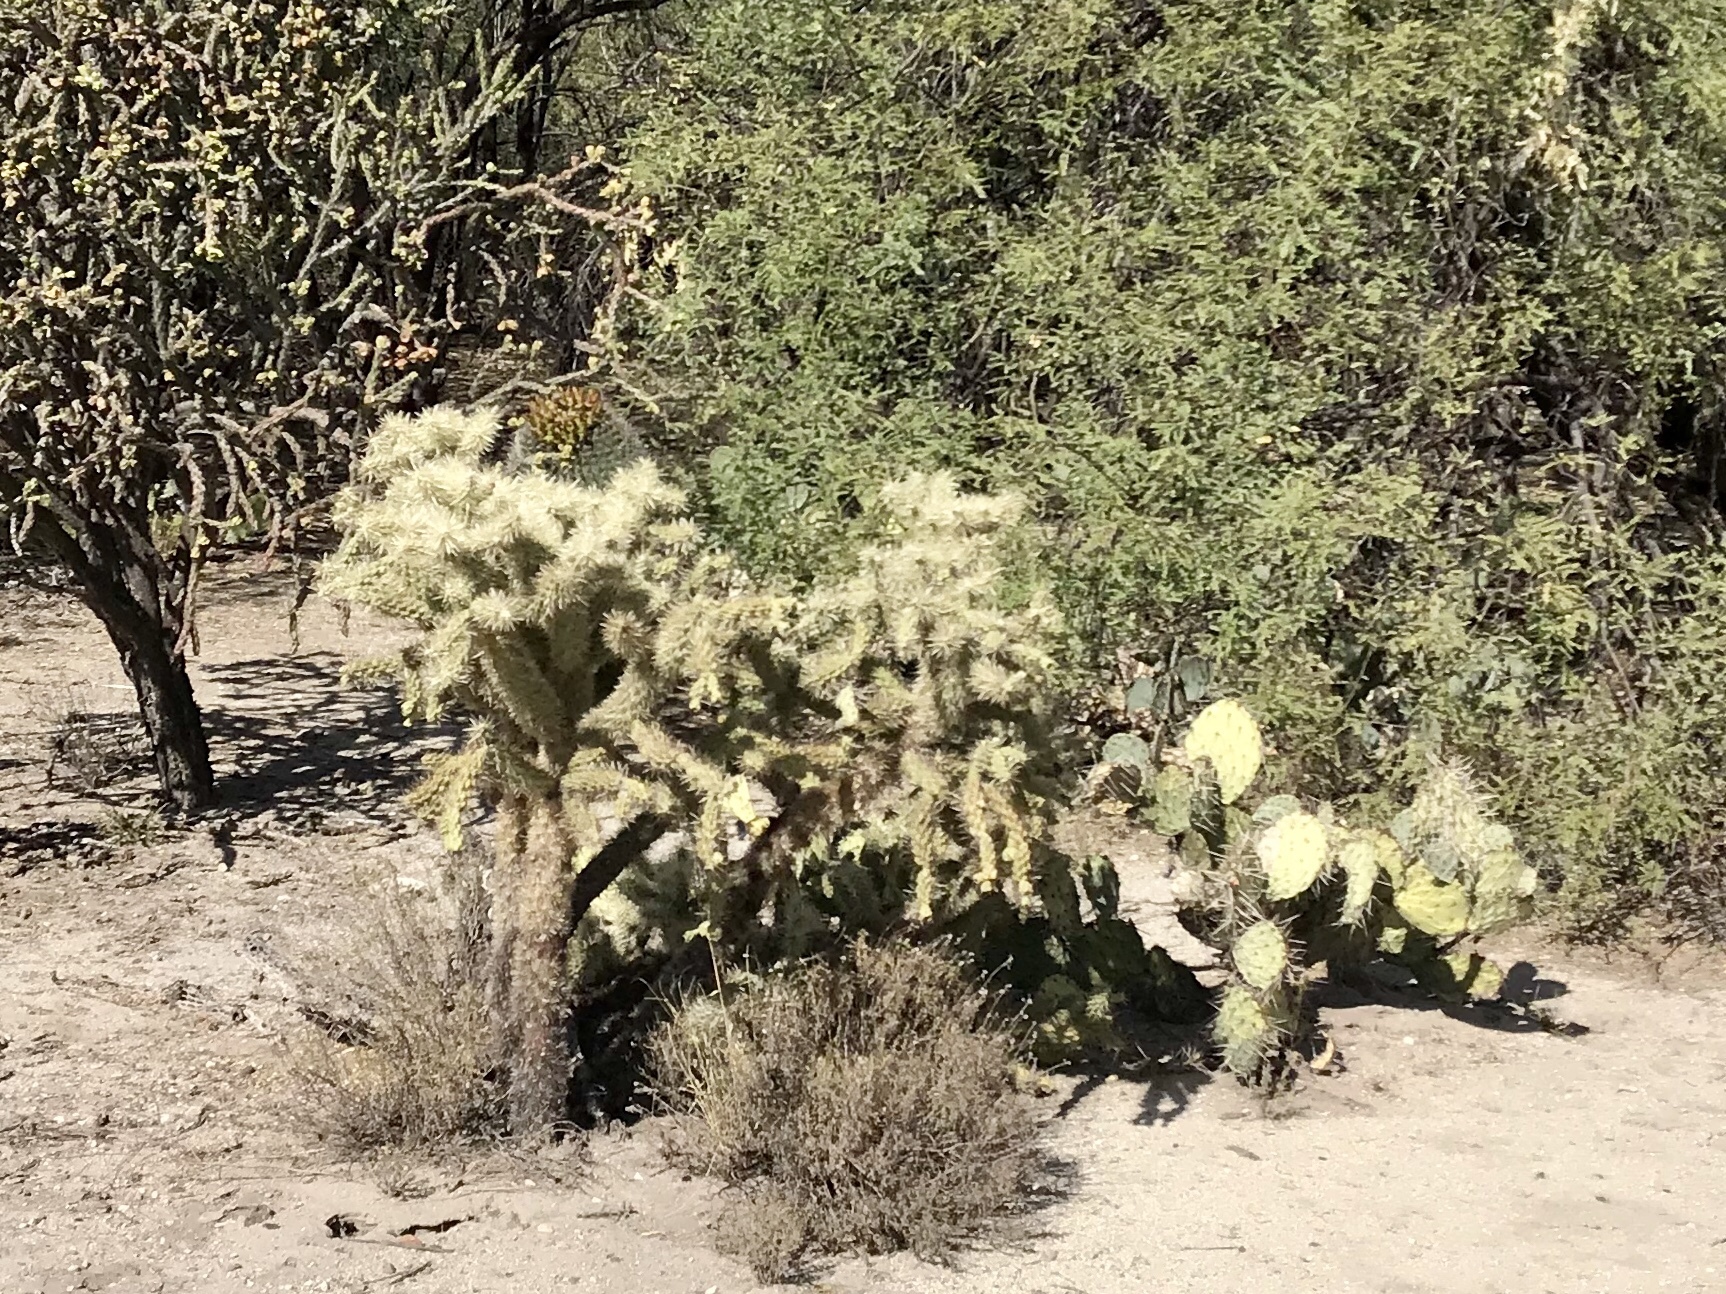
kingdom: Plantae
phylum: Tracheophyta
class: Magnoliopsida
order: Caryophyllales
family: Cactaceae
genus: Cylindropuntia
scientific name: Cylindropuntia fulgida
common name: Jumping cholla
